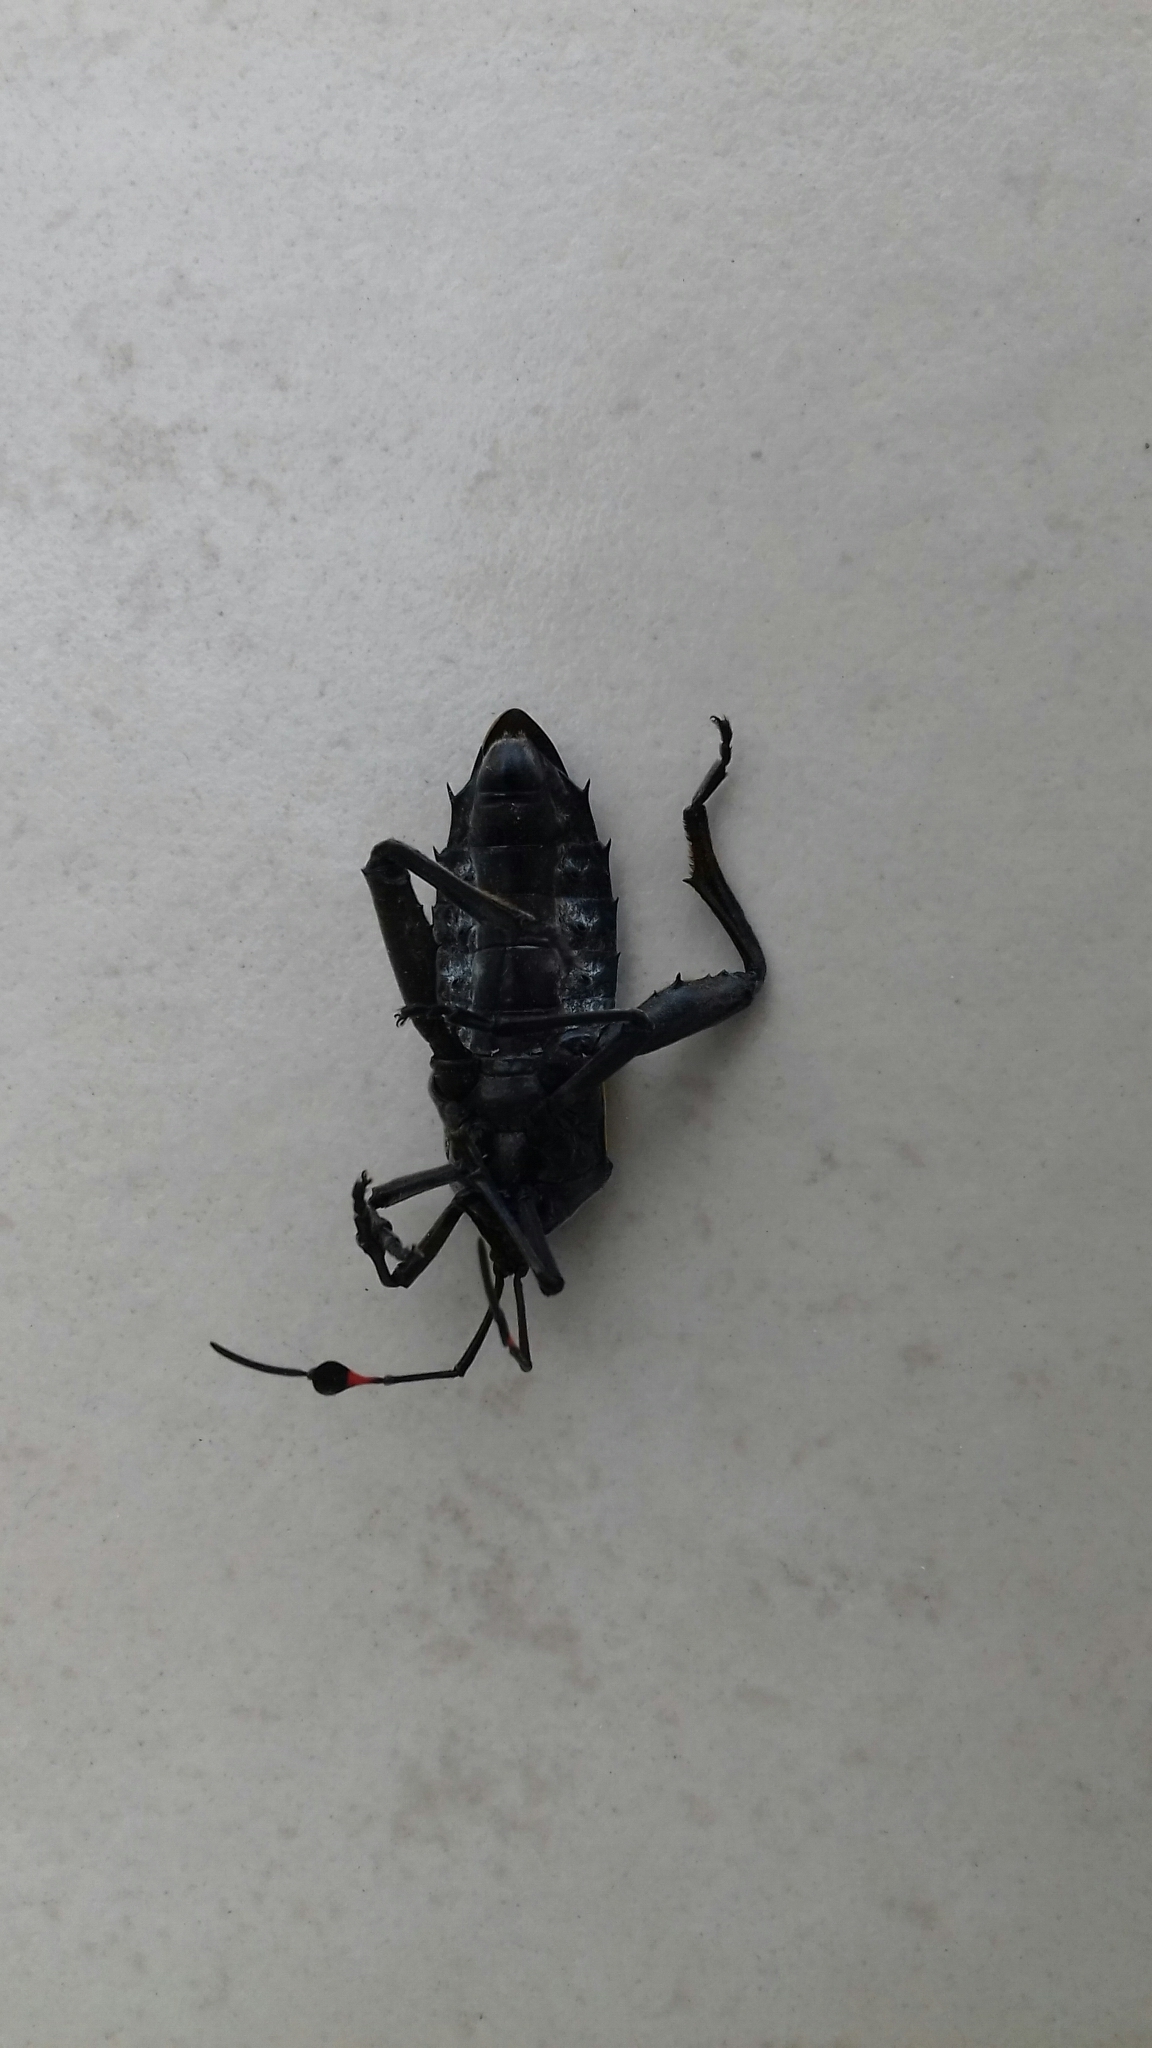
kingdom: Animalia
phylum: Arthropoda
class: Insecta
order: Hemiptera
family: Coreidae
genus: Thasus
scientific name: Thasus
